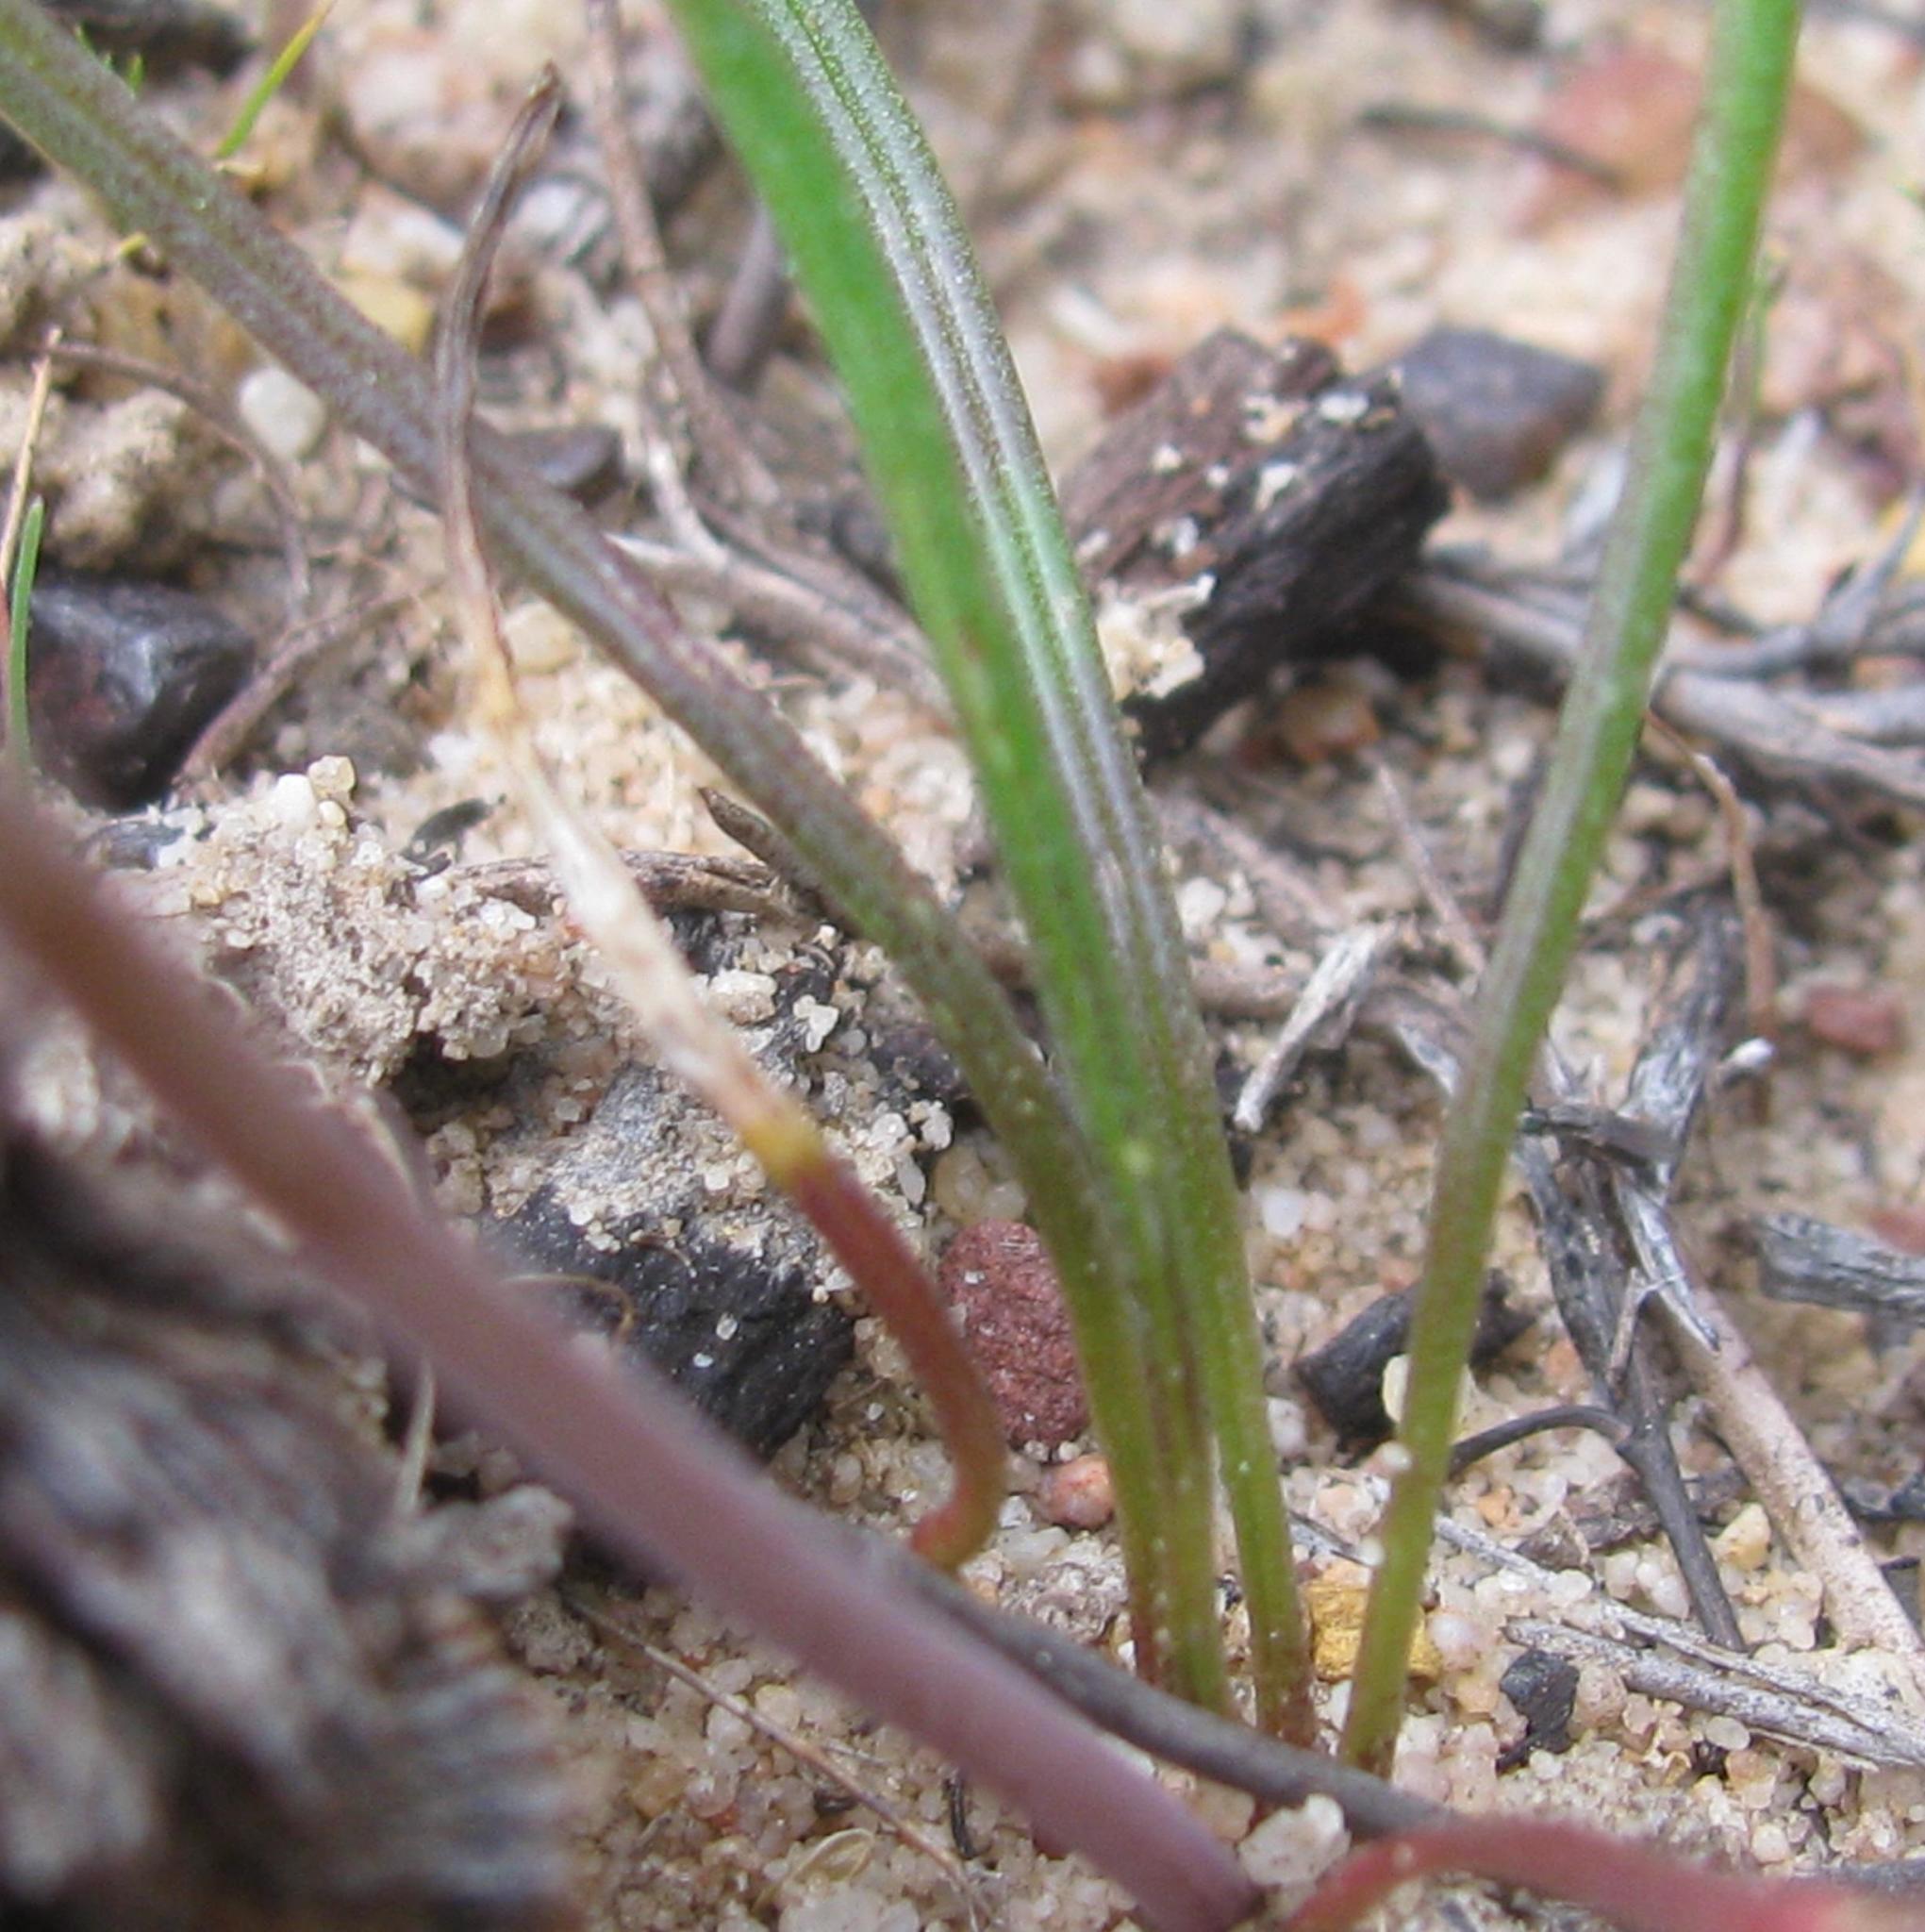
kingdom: Plantae
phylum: Tracheophyta
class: Liliopsida
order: Asparagales
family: Asparagaceae
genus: Lachenalia
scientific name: Lachenalia polyphylla
